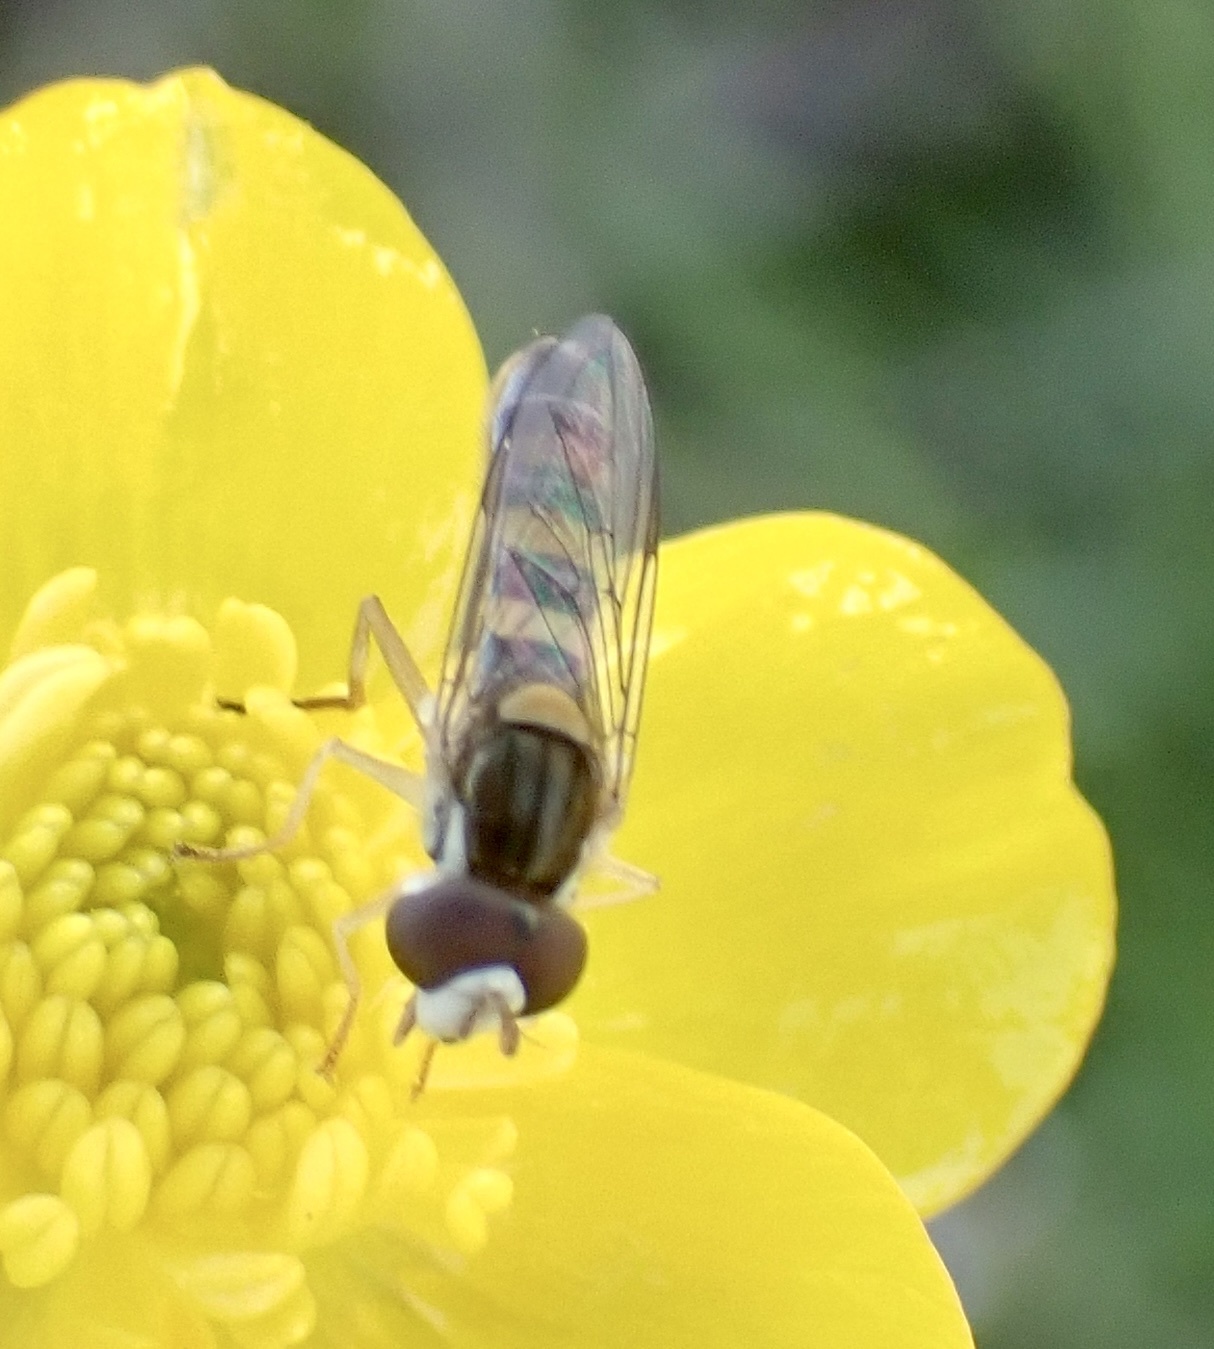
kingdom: Animalia
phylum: Arthropoda
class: Insecta
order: Diptera
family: Syrphidae
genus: Sphaerophoria
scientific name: Sphaerophoria contigua
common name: Tufted globetail
